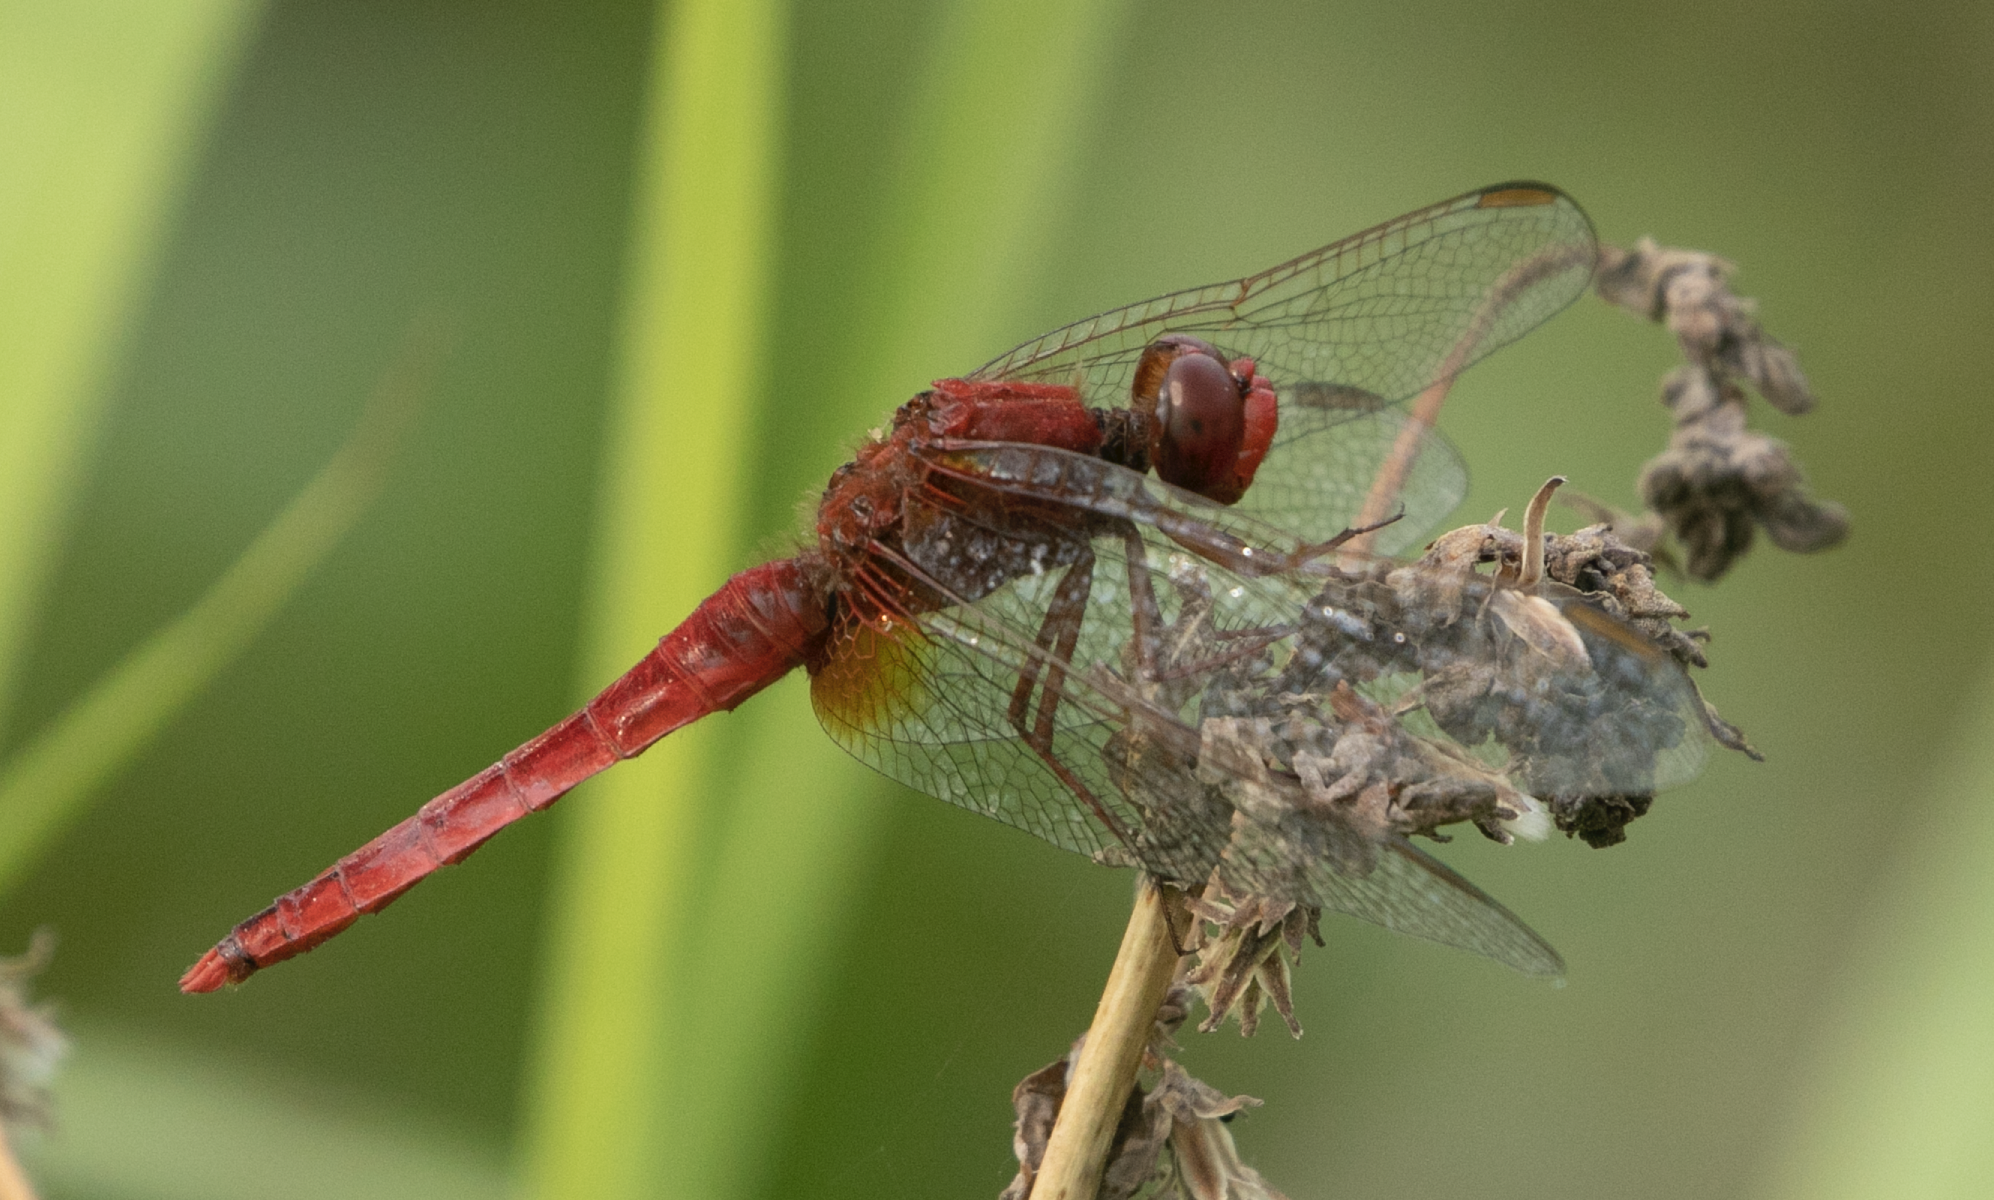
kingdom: Animalia
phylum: Arthropoda
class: Insecta
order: Odonata
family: Libellulidae
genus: Crocothemis
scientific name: Crocothemis erythraea
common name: Scarlet dragonfly
